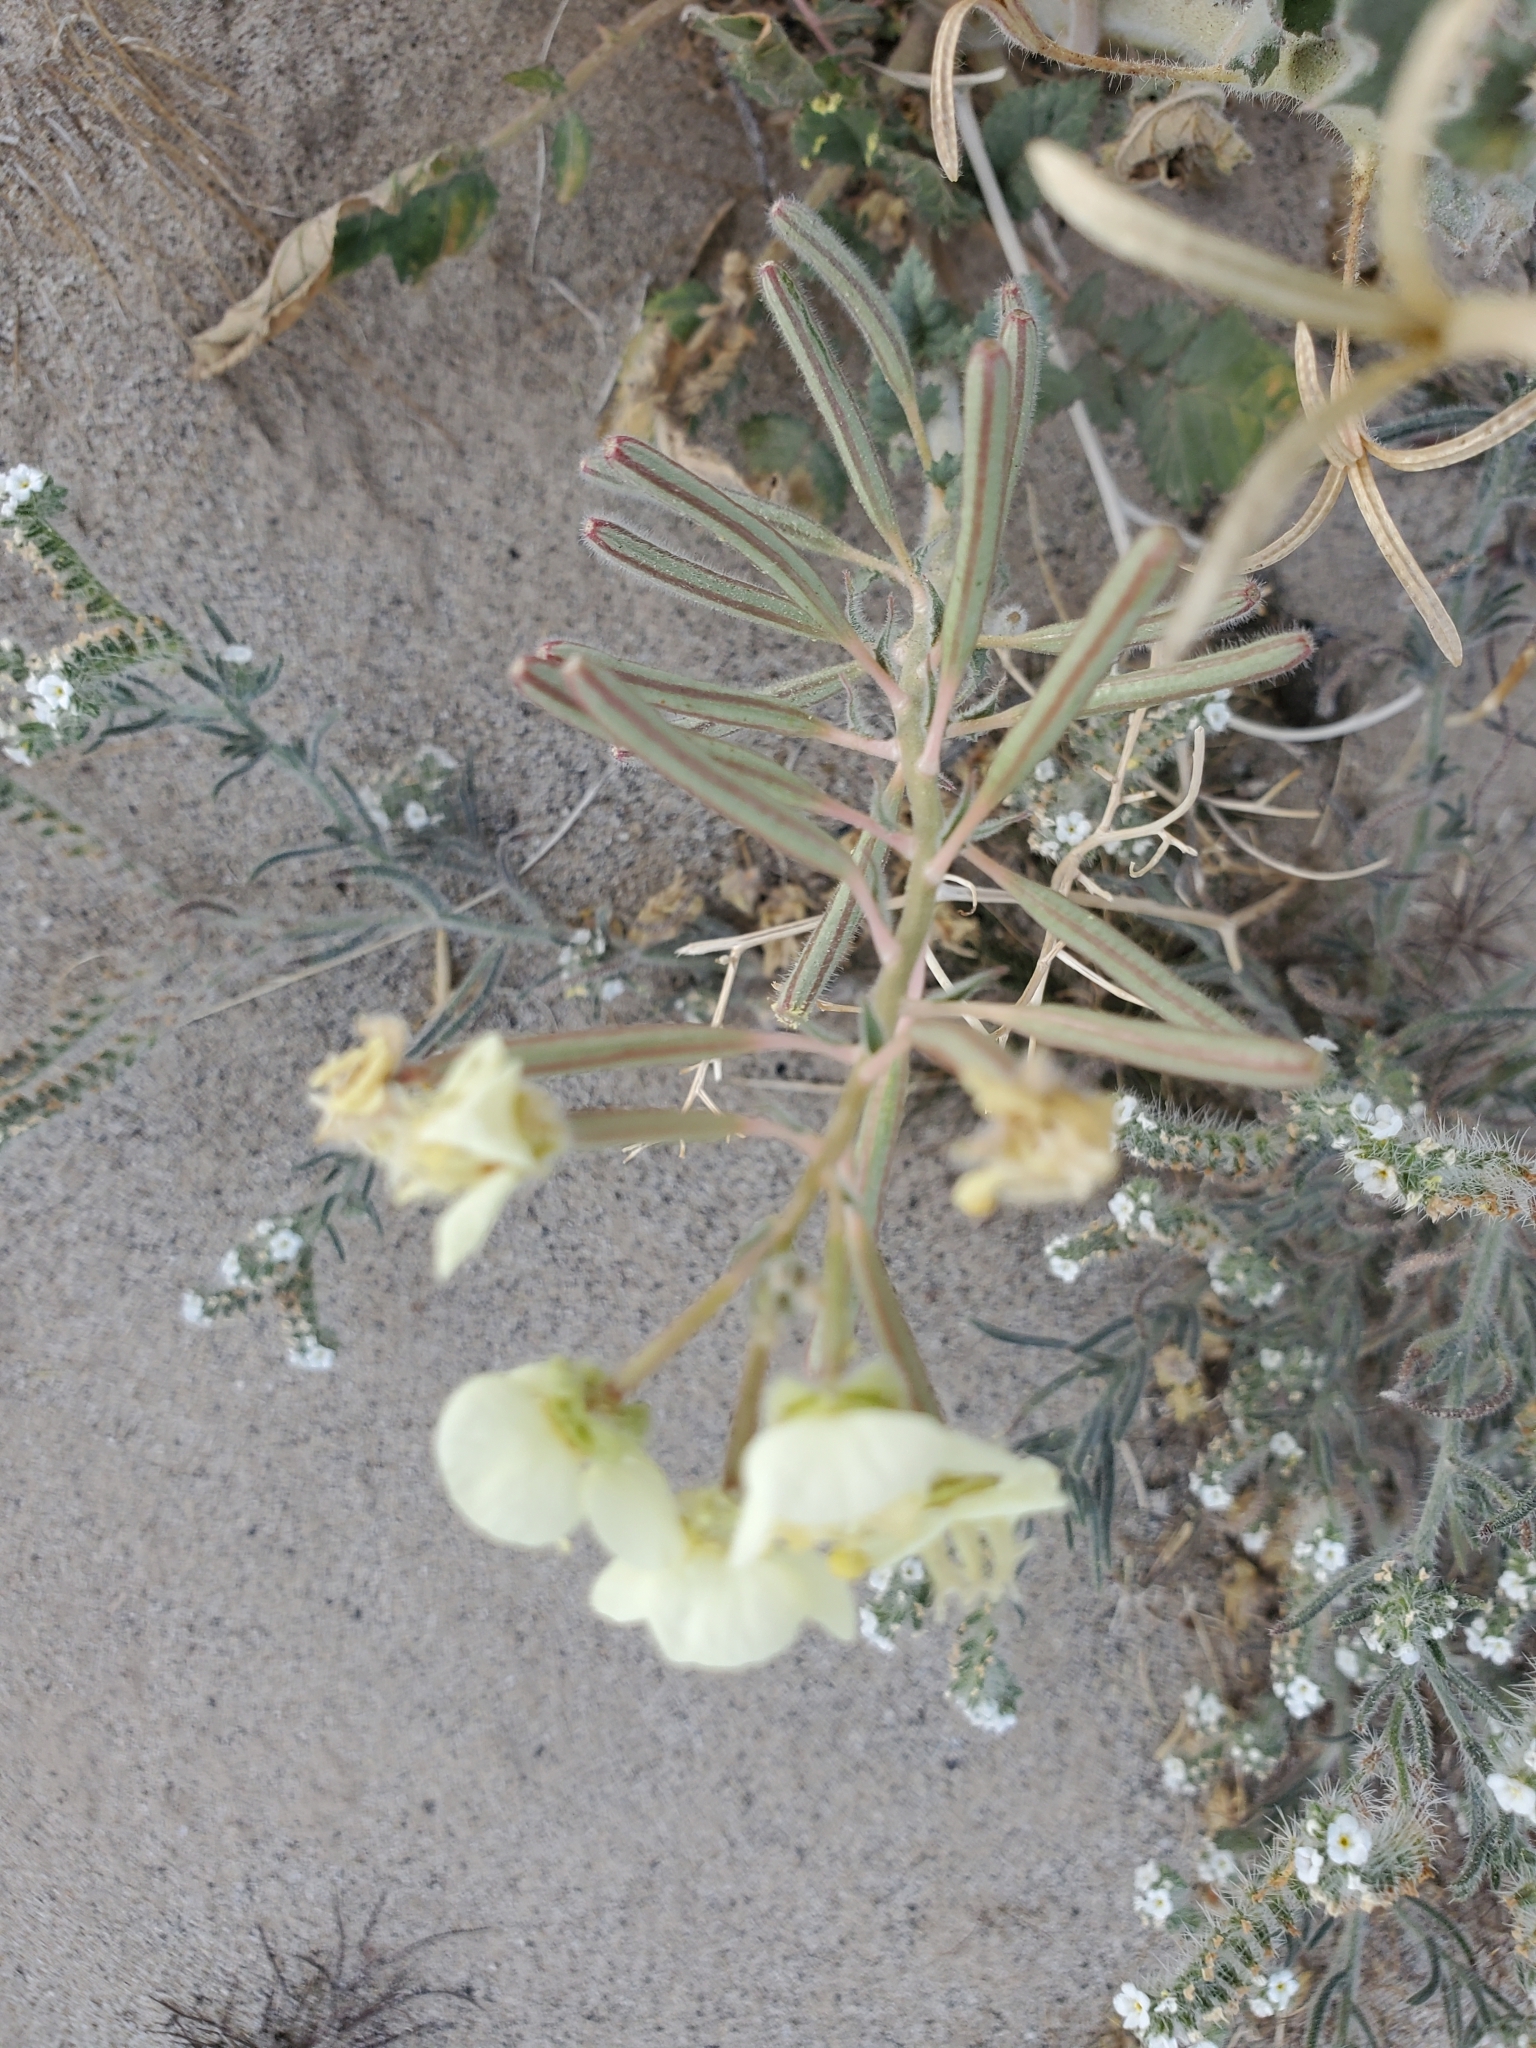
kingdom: Plantae
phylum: Tracheophyta
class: Magnoliopsida
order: Myrtales
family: Onagraceae
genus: Chylismia
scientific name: Chylismia claviformis
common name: Browneyes
